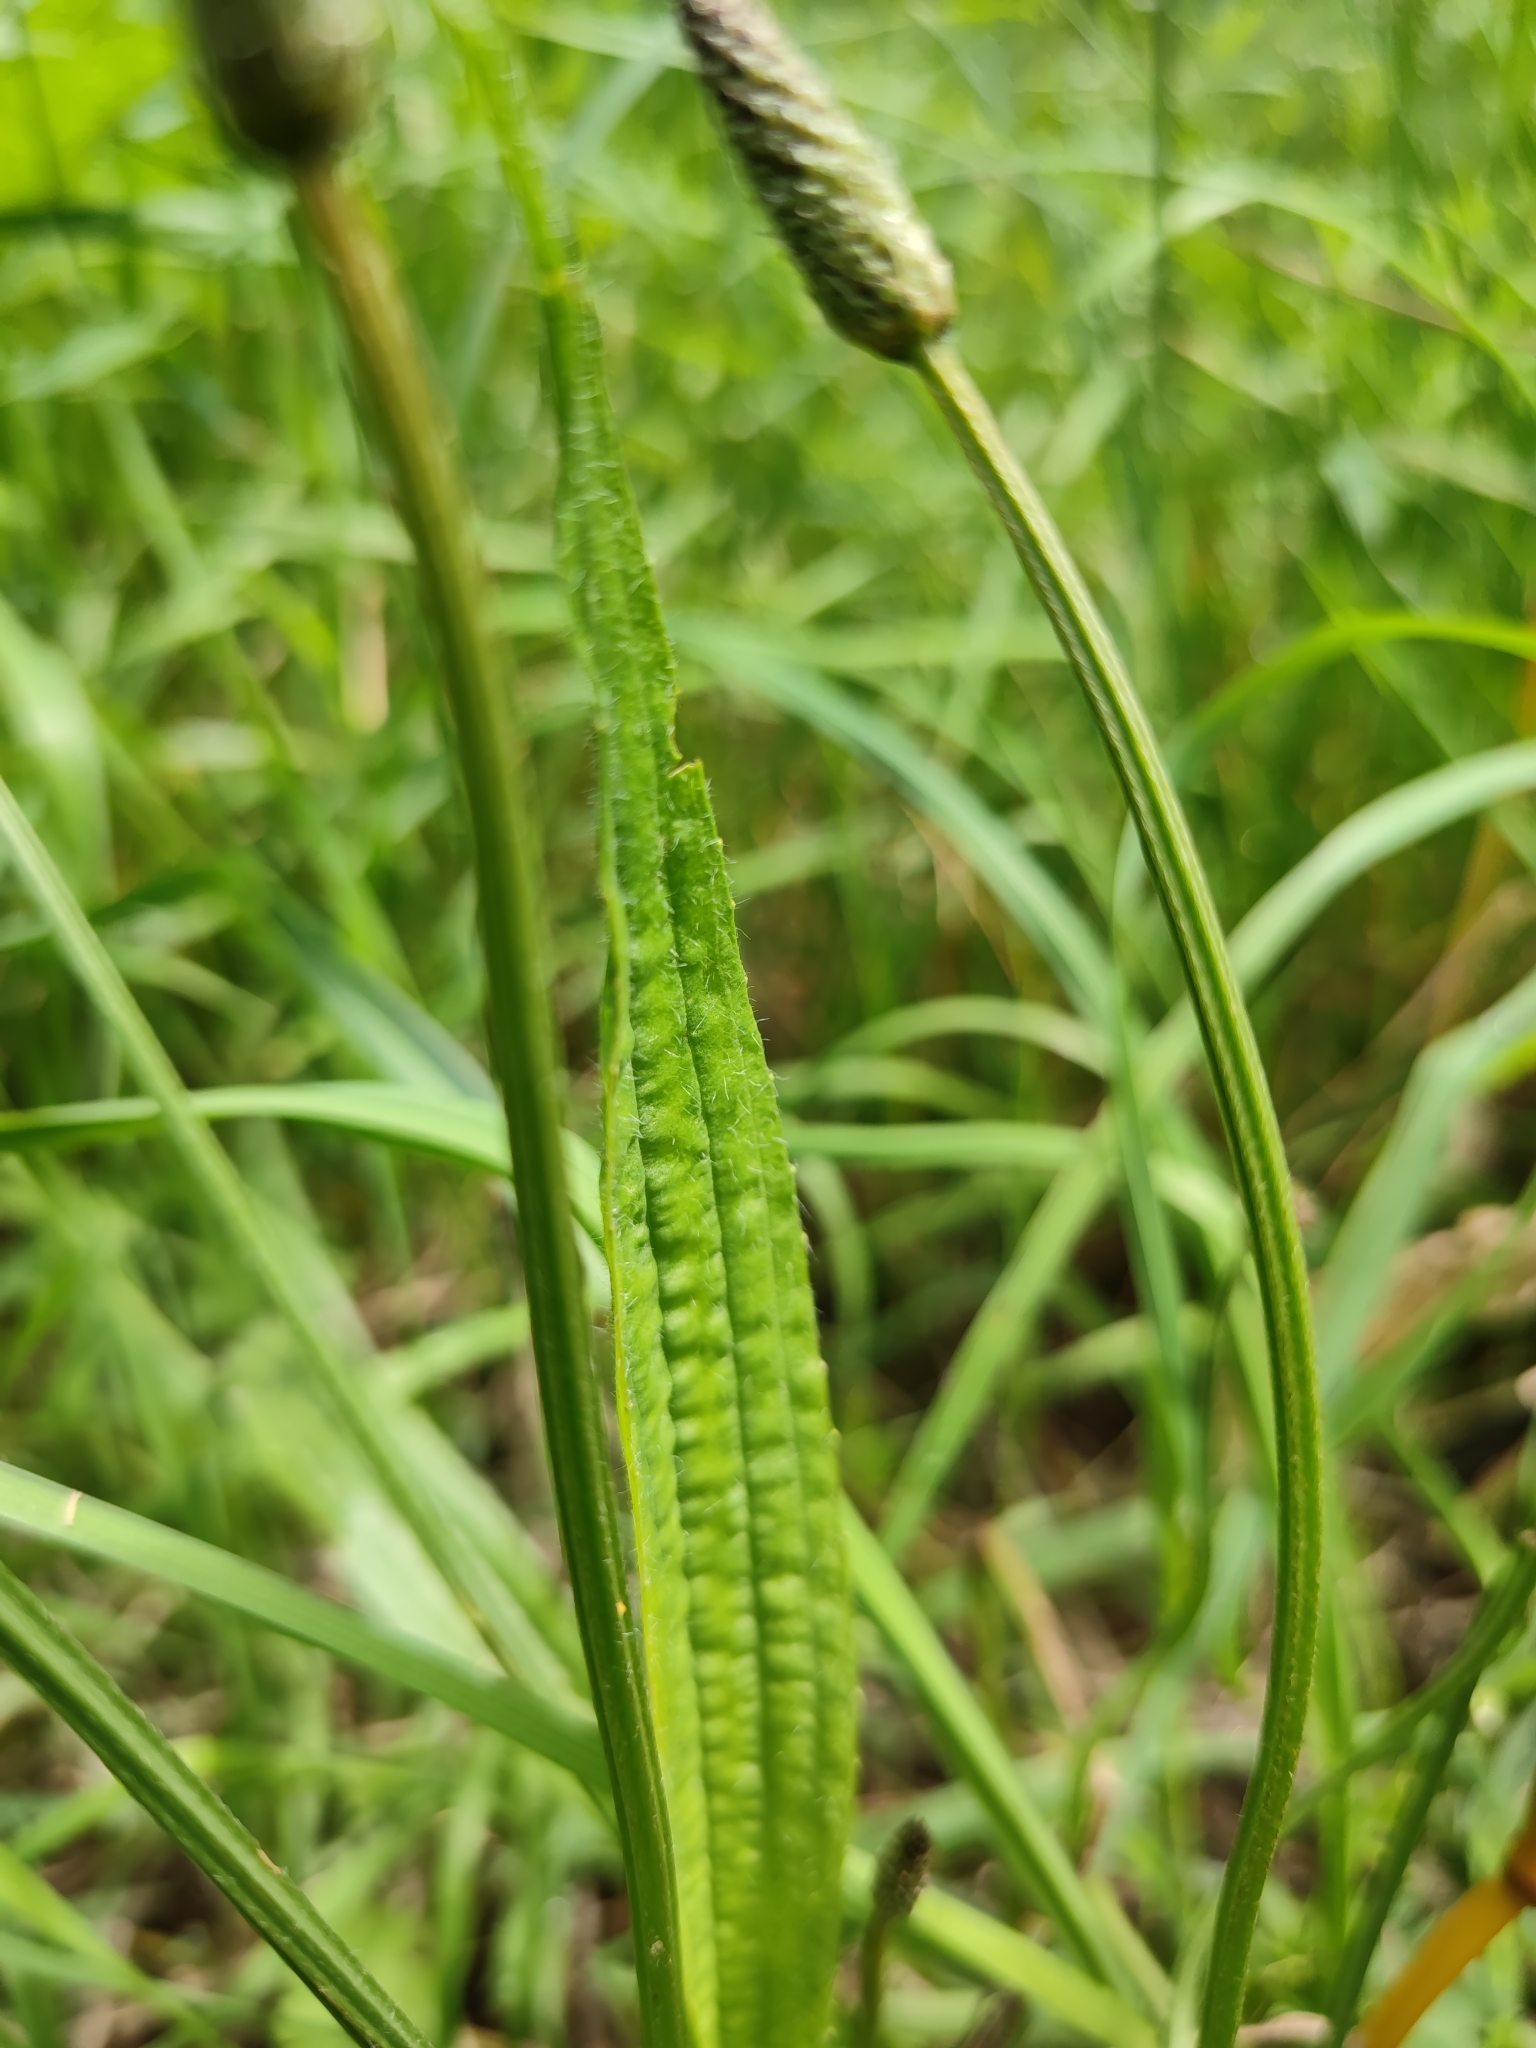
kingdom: Plantae
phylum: Tracheophyta
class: Magnoliopsida
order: Lamiales
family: Plantaginaceae
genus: Plantago
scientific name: Plantago lanceolata
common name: Ribwort plantain
